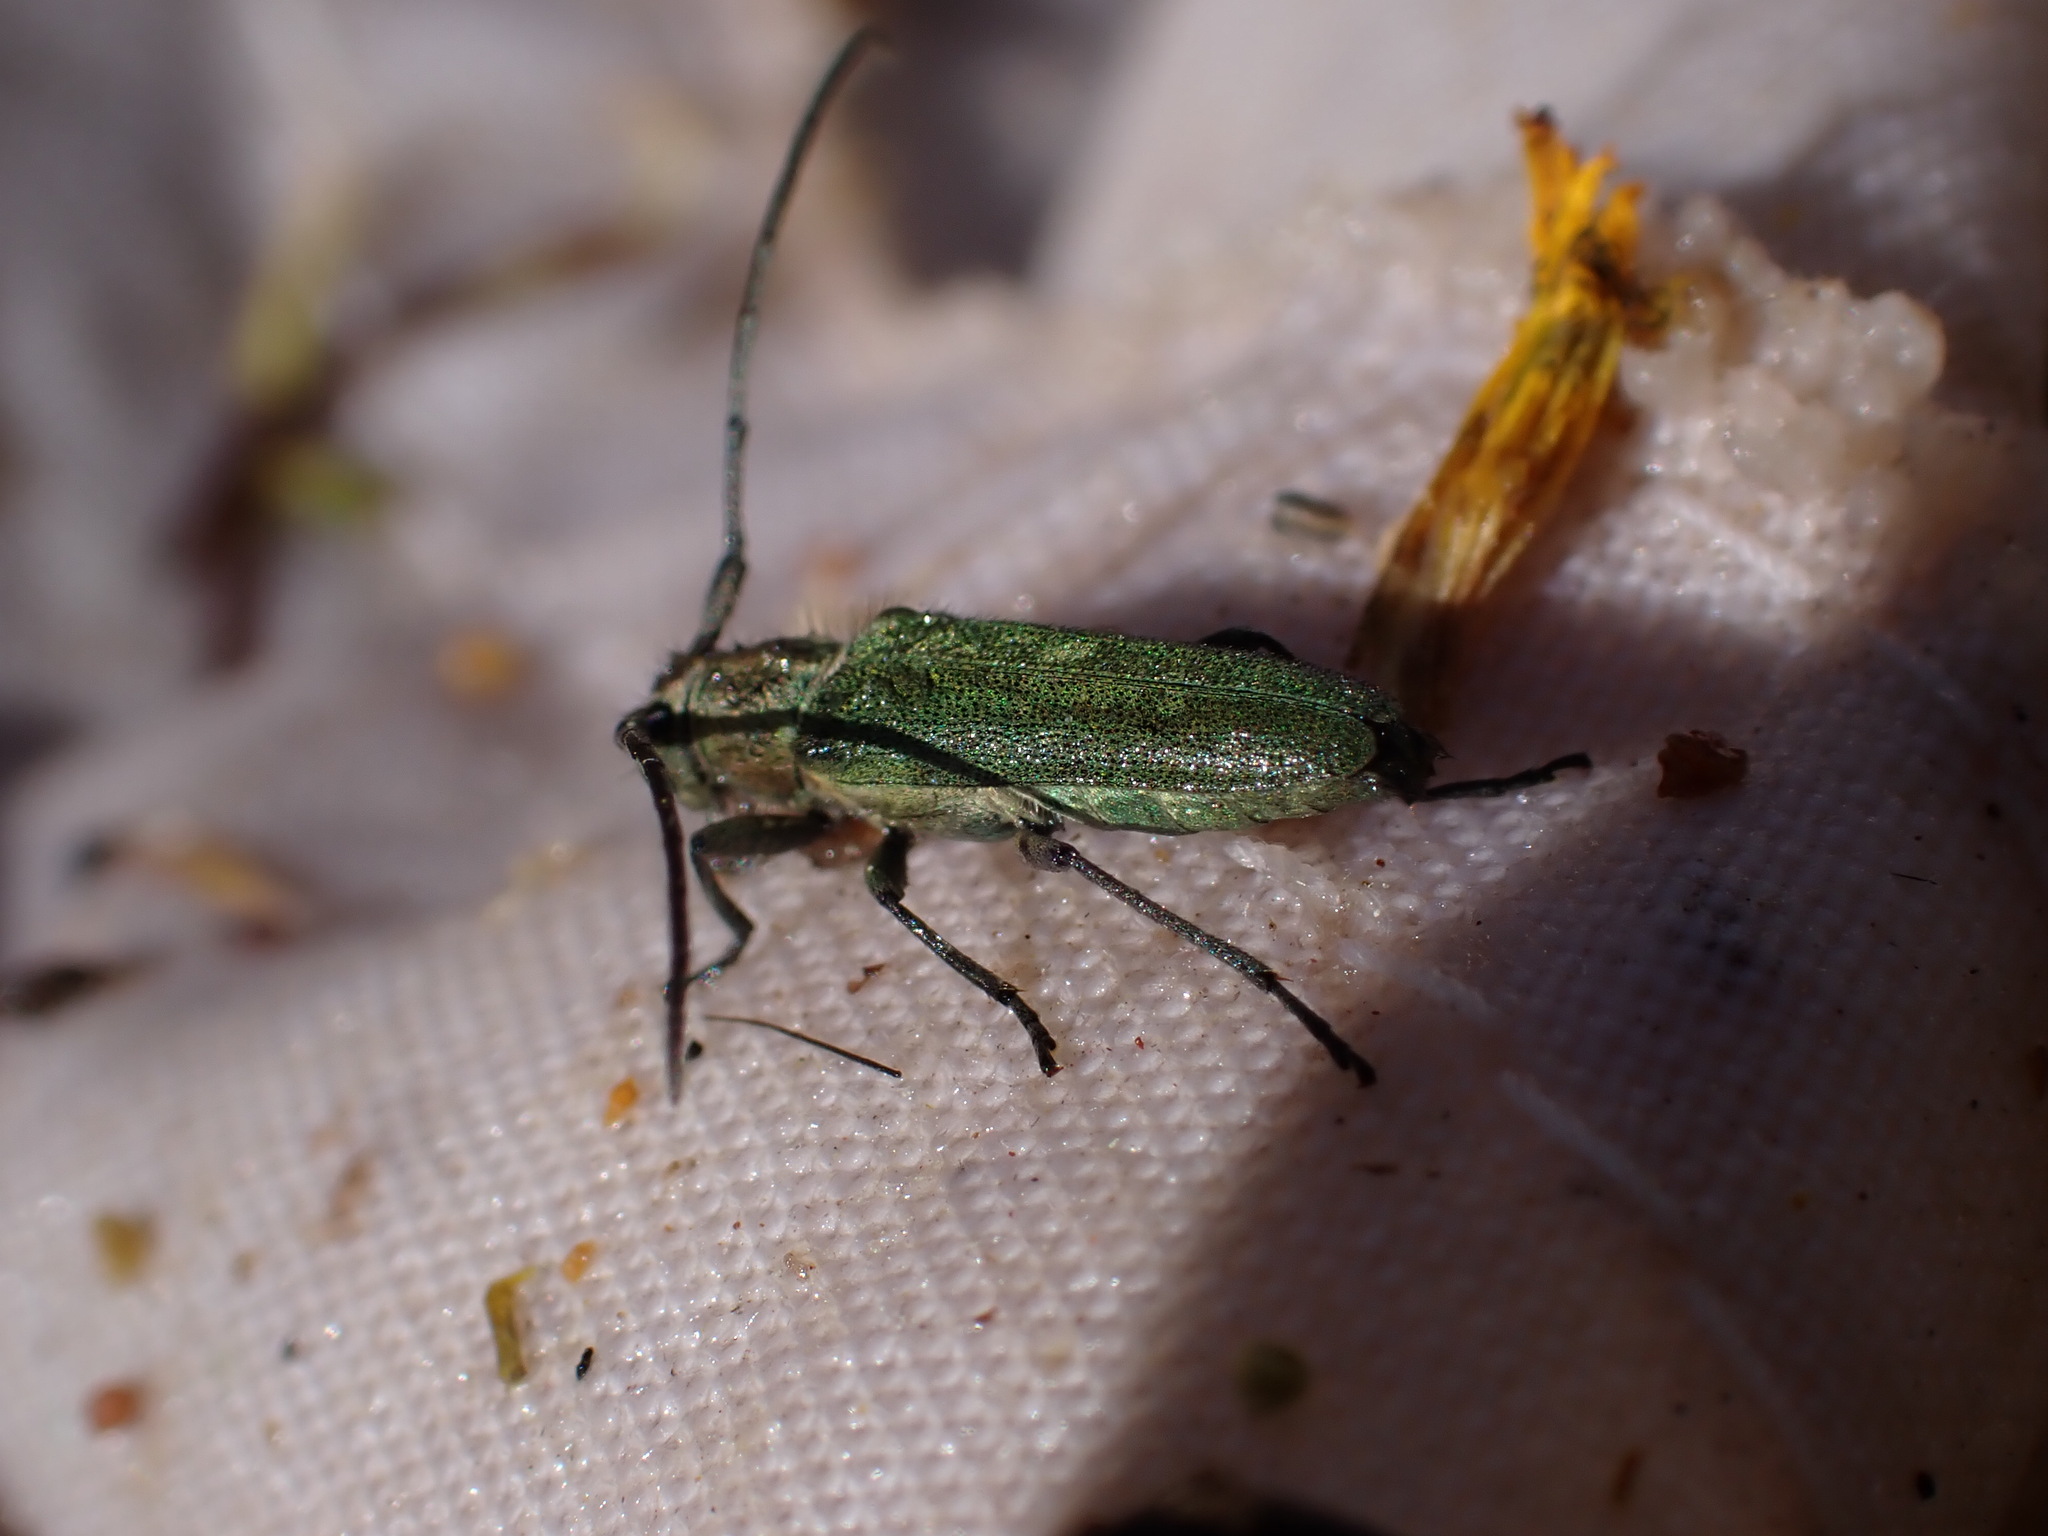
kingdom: Animalia
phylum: Arthropoda
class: Insecta
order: Coleoptera
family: Cerambycidae
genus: Phytoecia
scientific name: Phytoecia coerulescens
